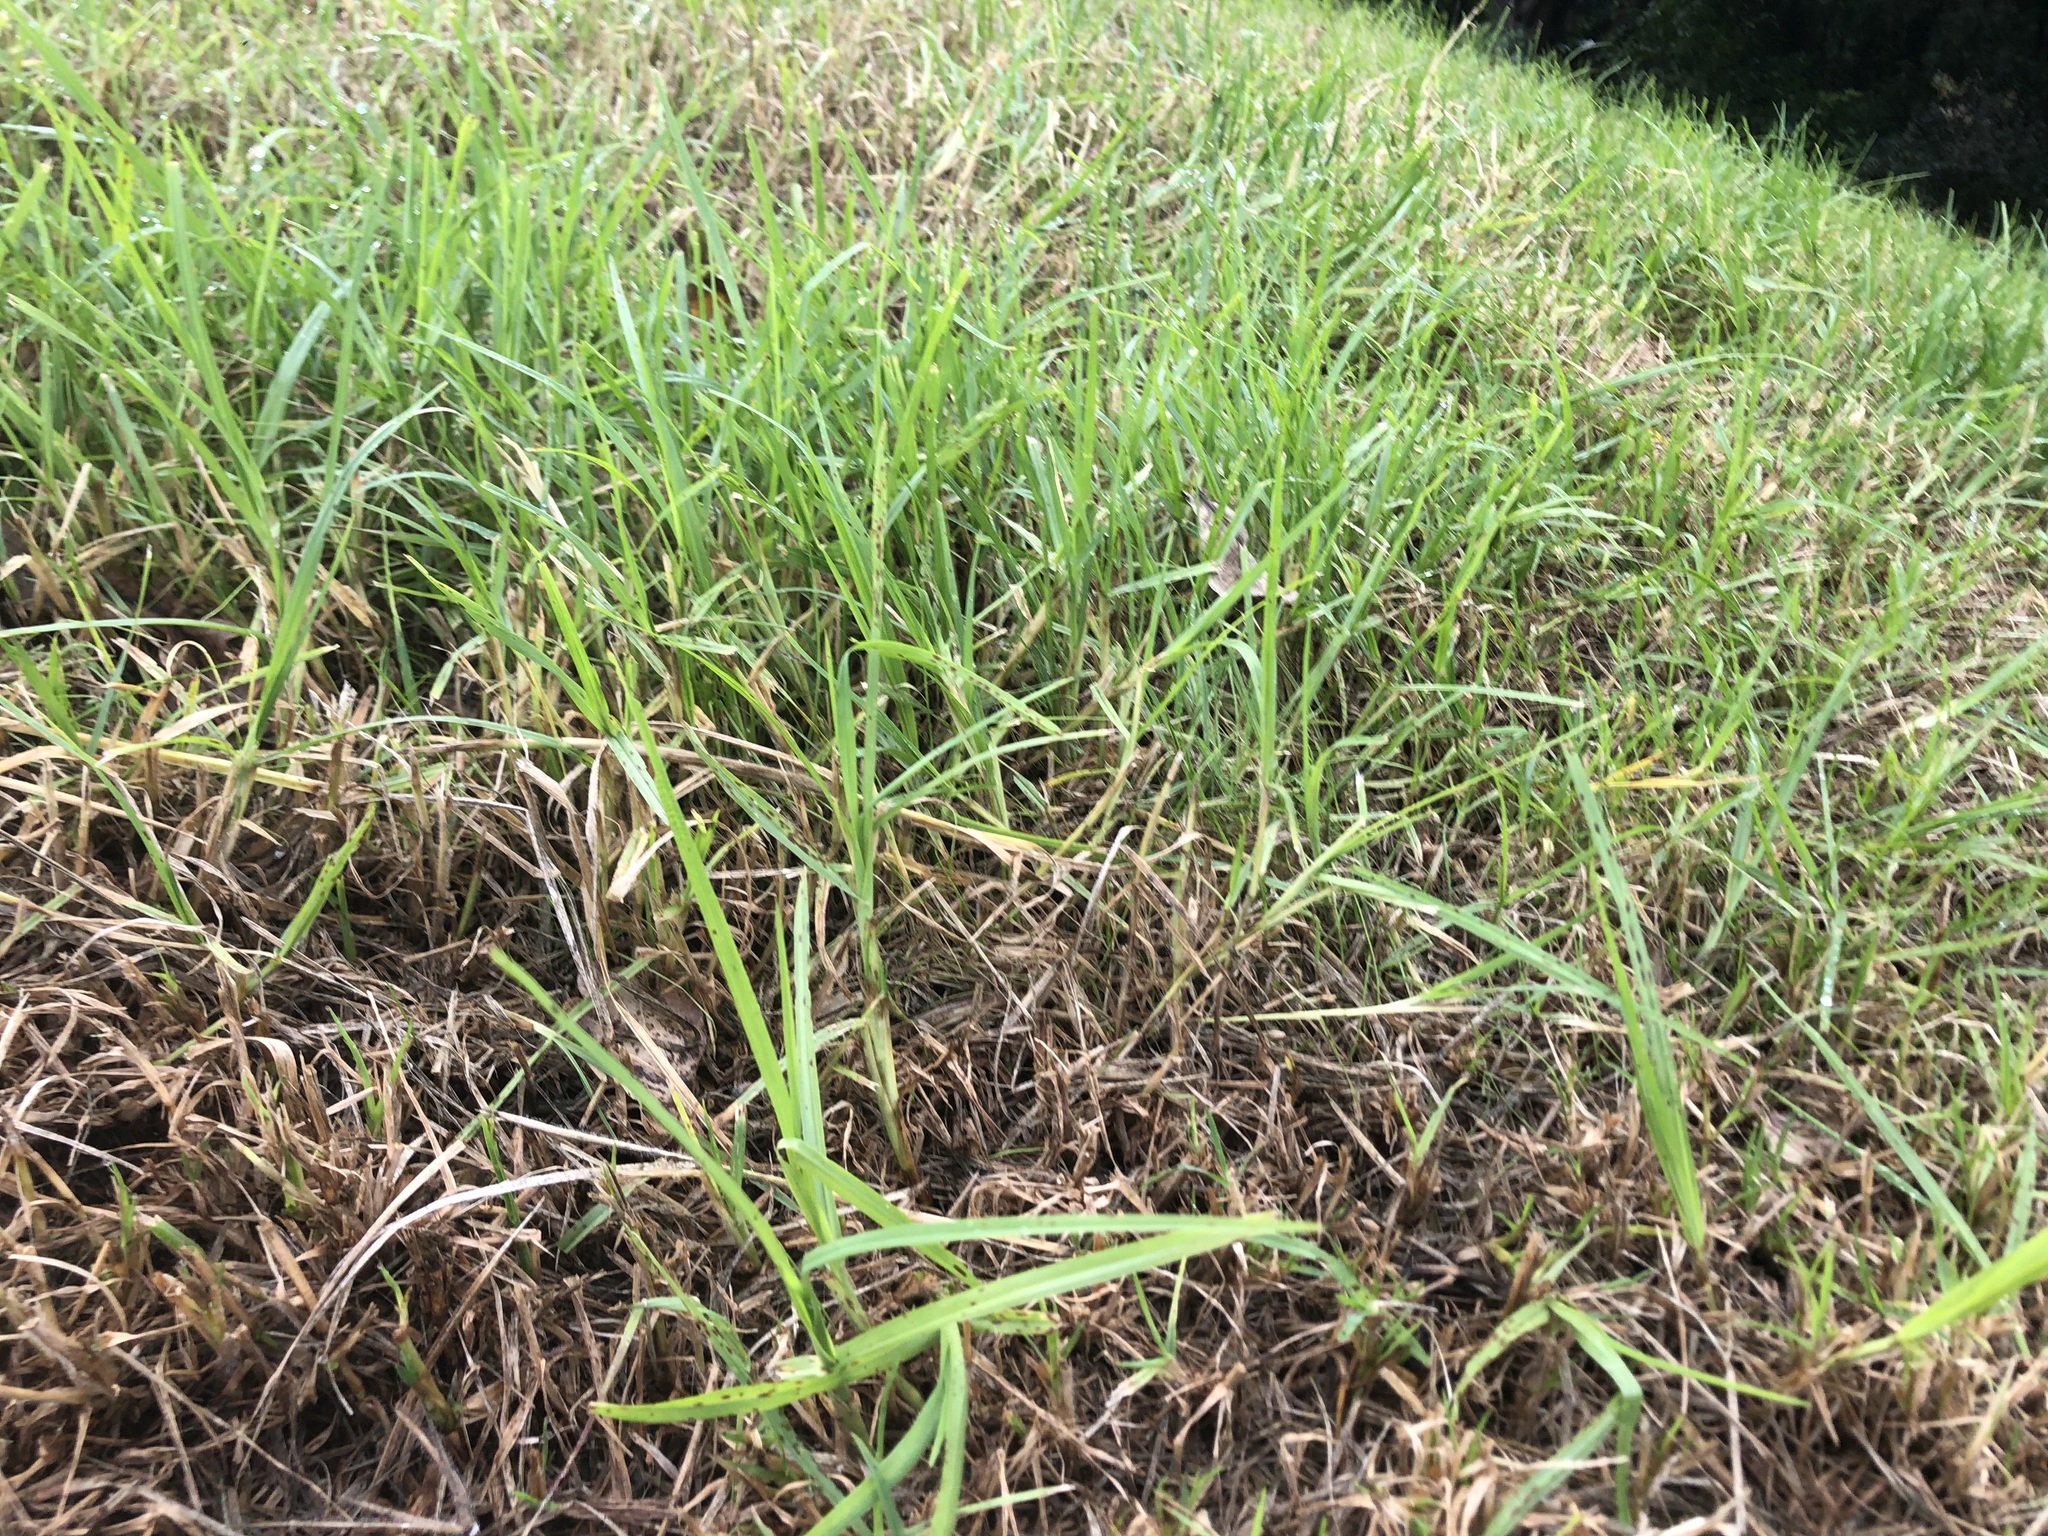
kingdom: Plantae
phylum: Tracheophyta
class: Liliopsida
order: Poales
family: Poaceae
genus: Cenchrus
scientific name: Cenchrus clandestinus
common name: Kikuyugrass
